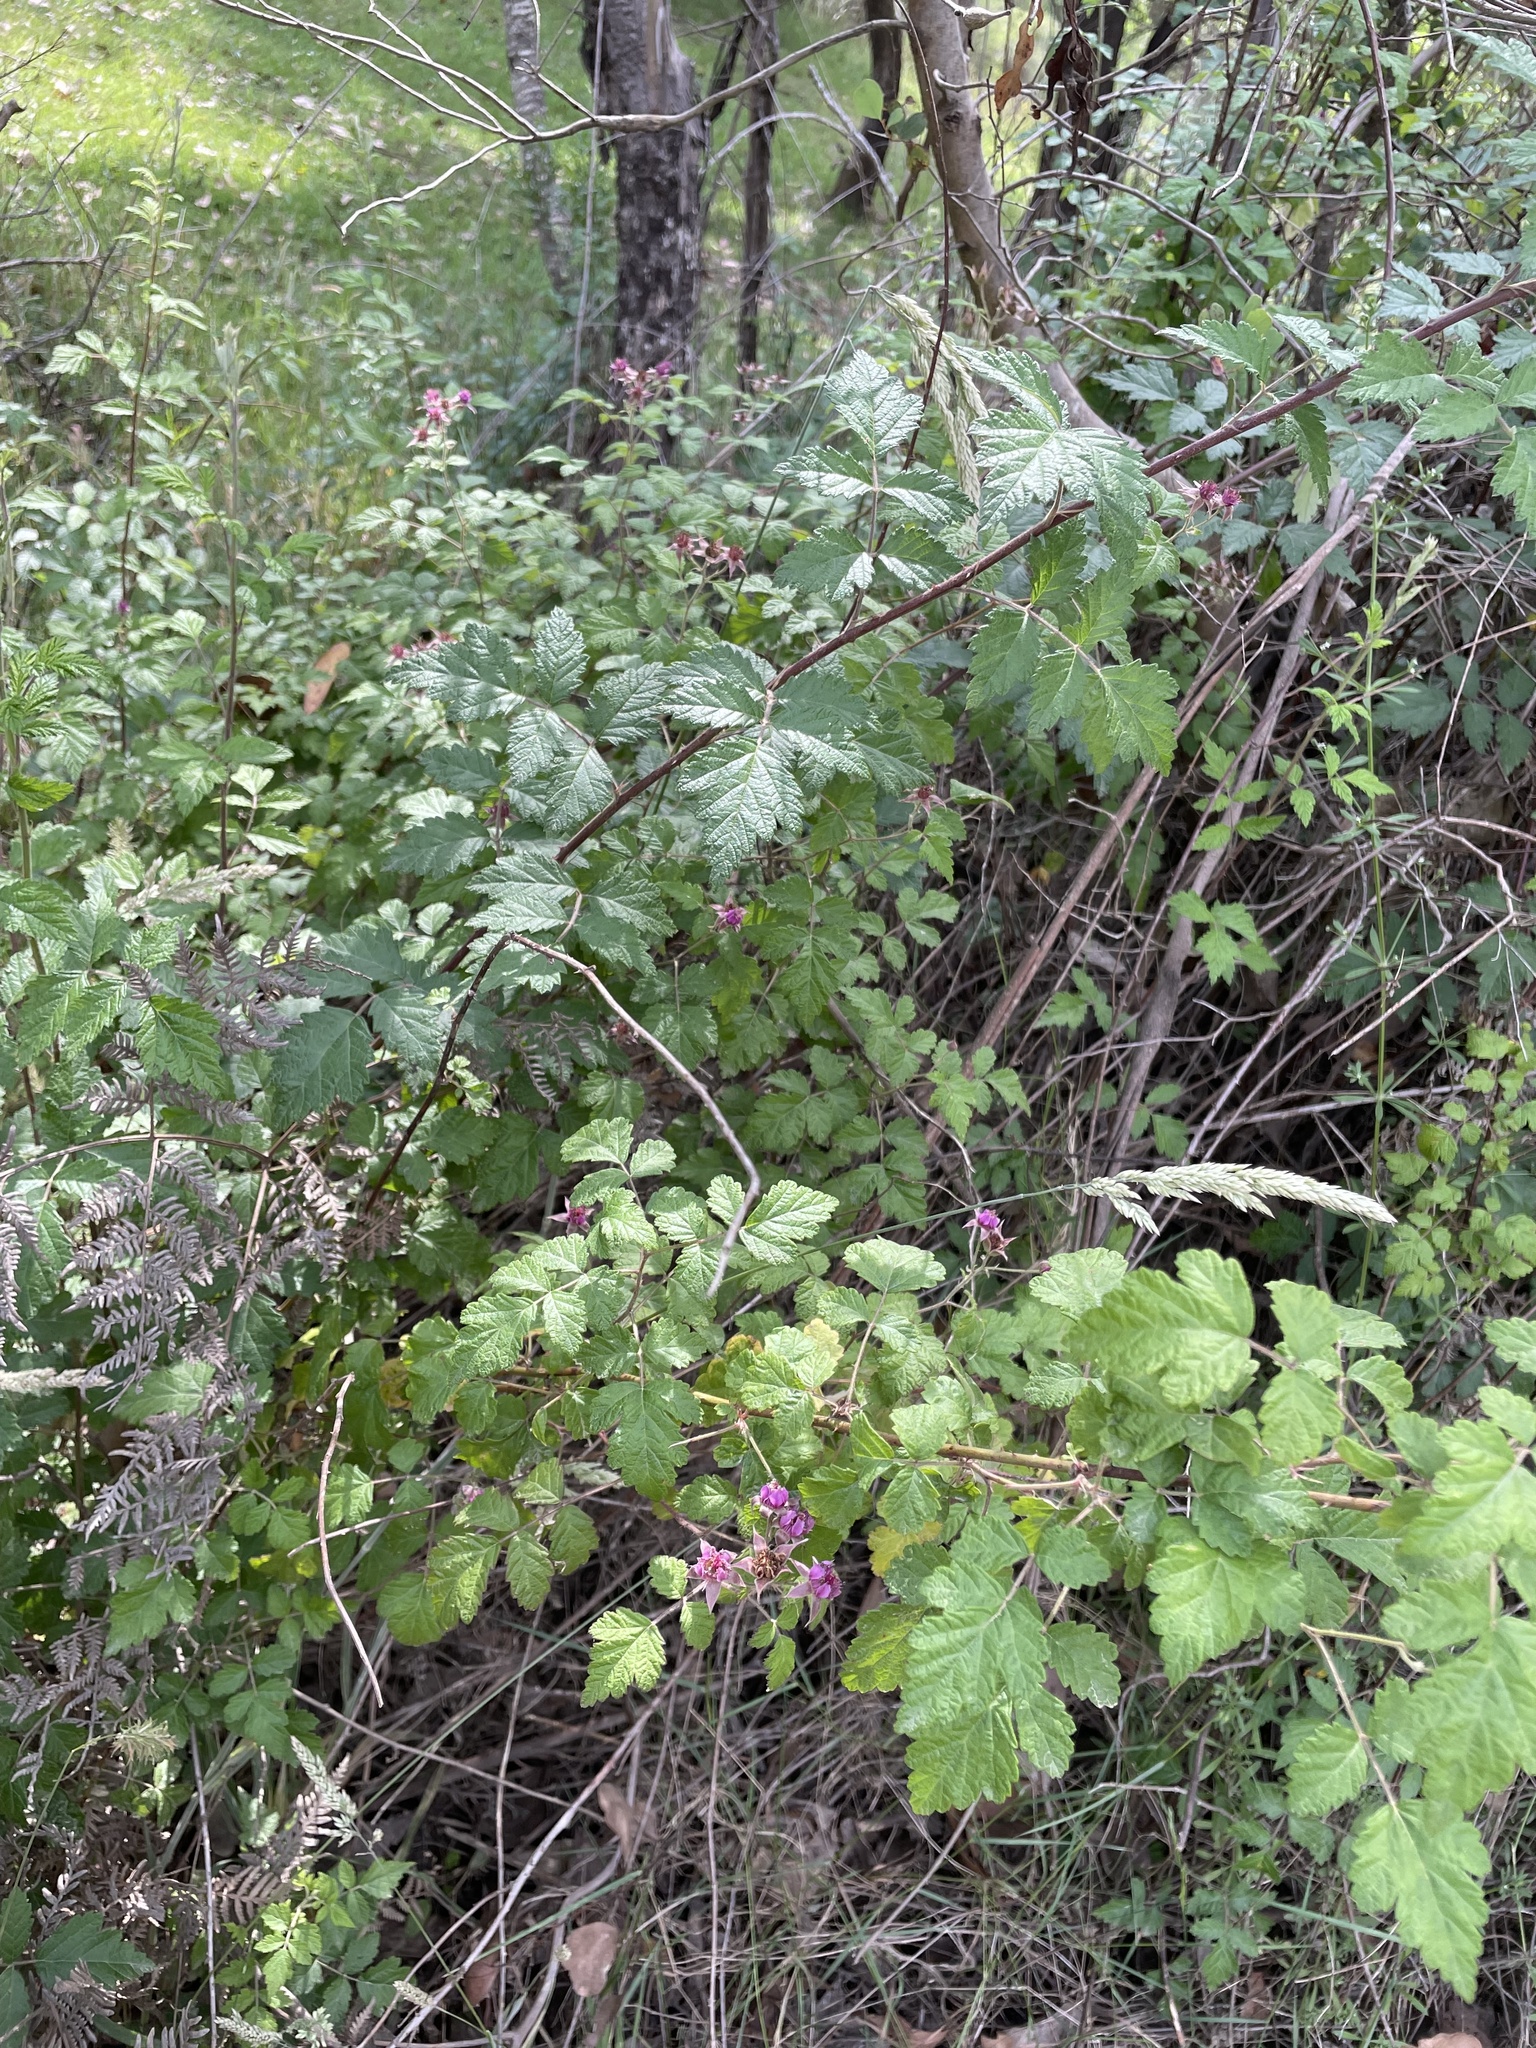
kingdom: Plantae
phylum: Tracheophyta
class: Magnoliopsida
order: Rosales
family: Rosaceae
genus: Rubus
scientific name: Rubus parvifolius
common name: Threeleaf blackberry
